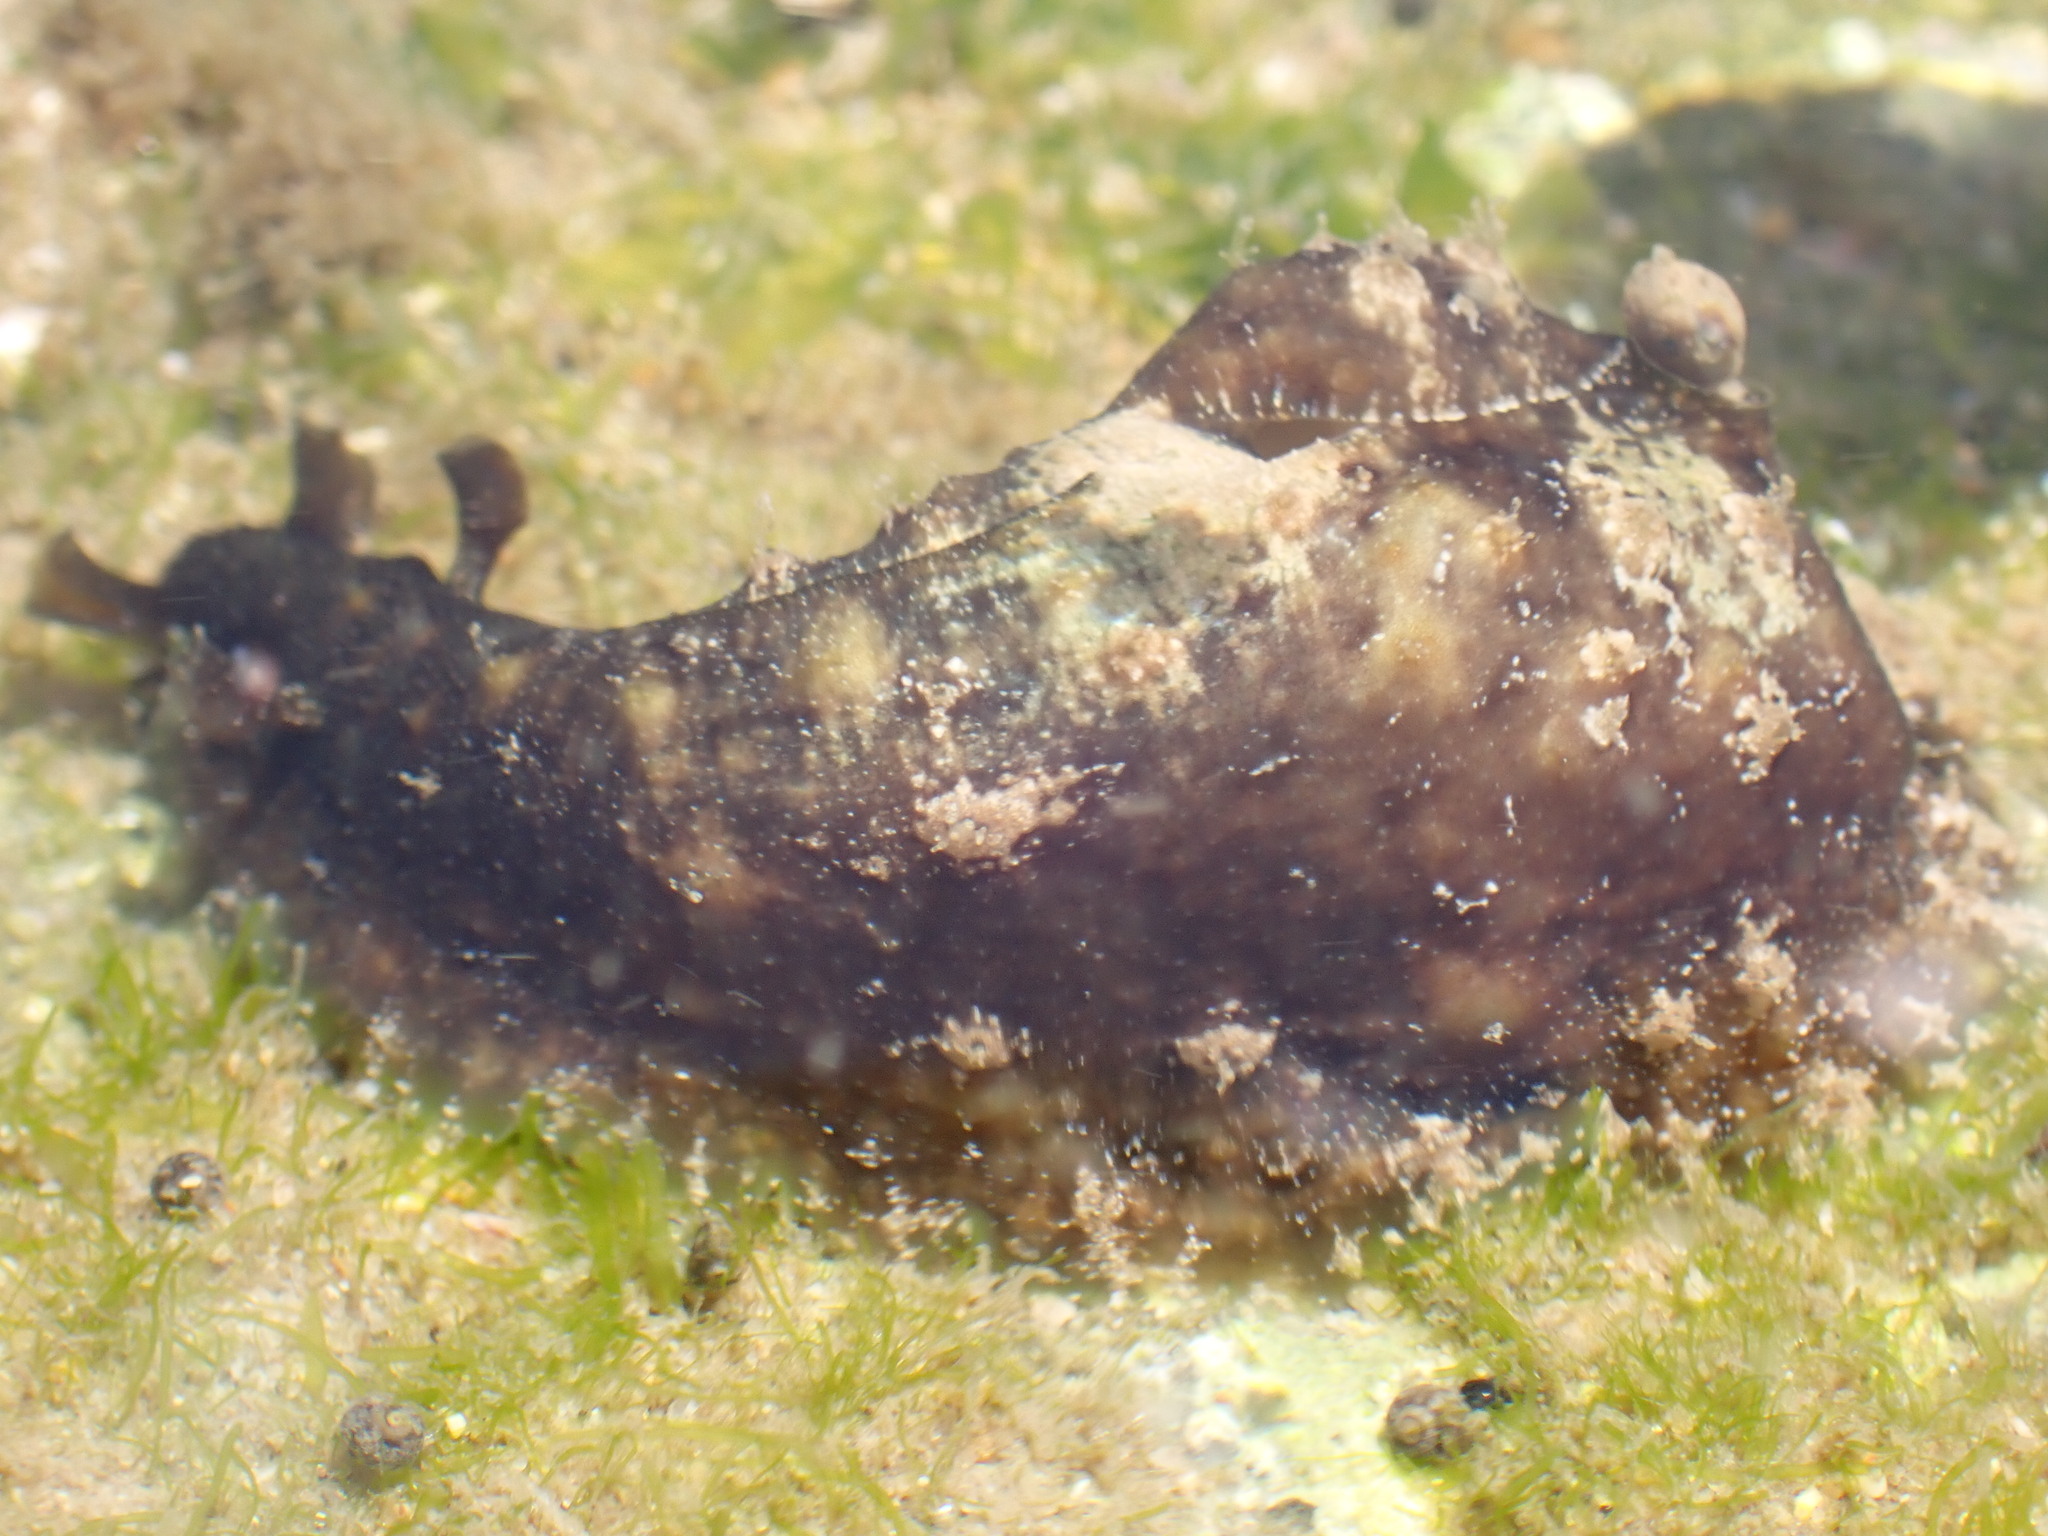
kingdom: Animalia
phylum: Mollusca
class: Gastropoda
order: Aplysiida
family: Aplysiidae
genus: Dolabrifera
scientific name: Dolabrifera dolabrifera
